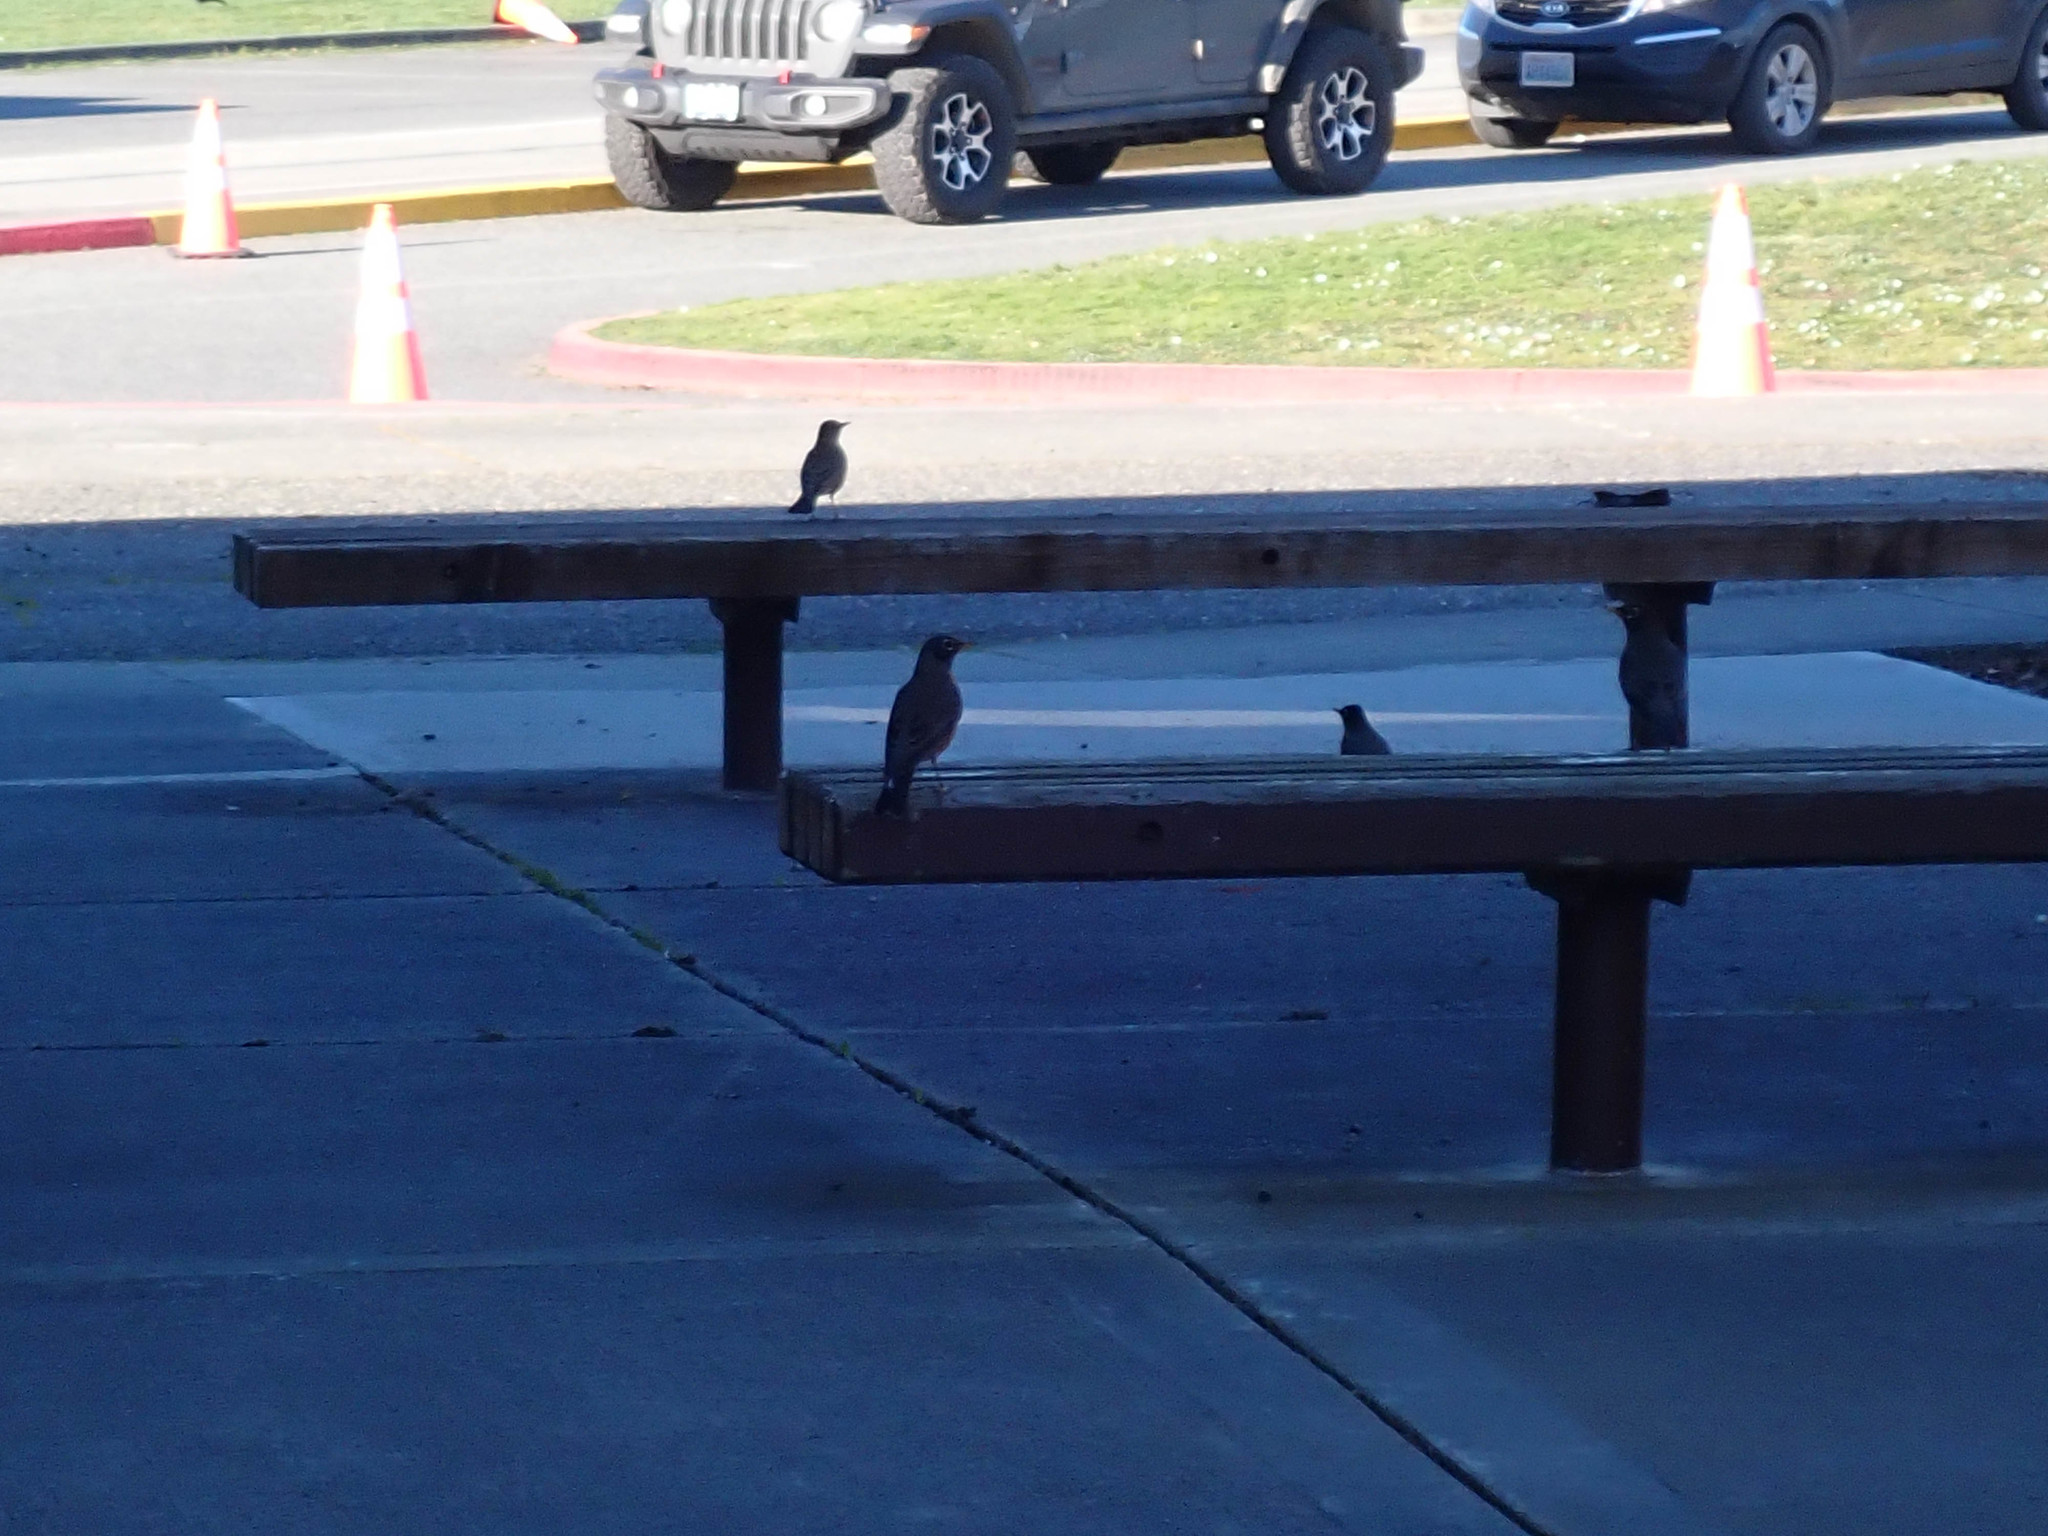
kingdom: Animalia
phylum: Chordata
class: Aves
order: Passeriformes
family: Turdidae
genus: Turdus
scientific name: Turdus migratorius
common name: American robin
